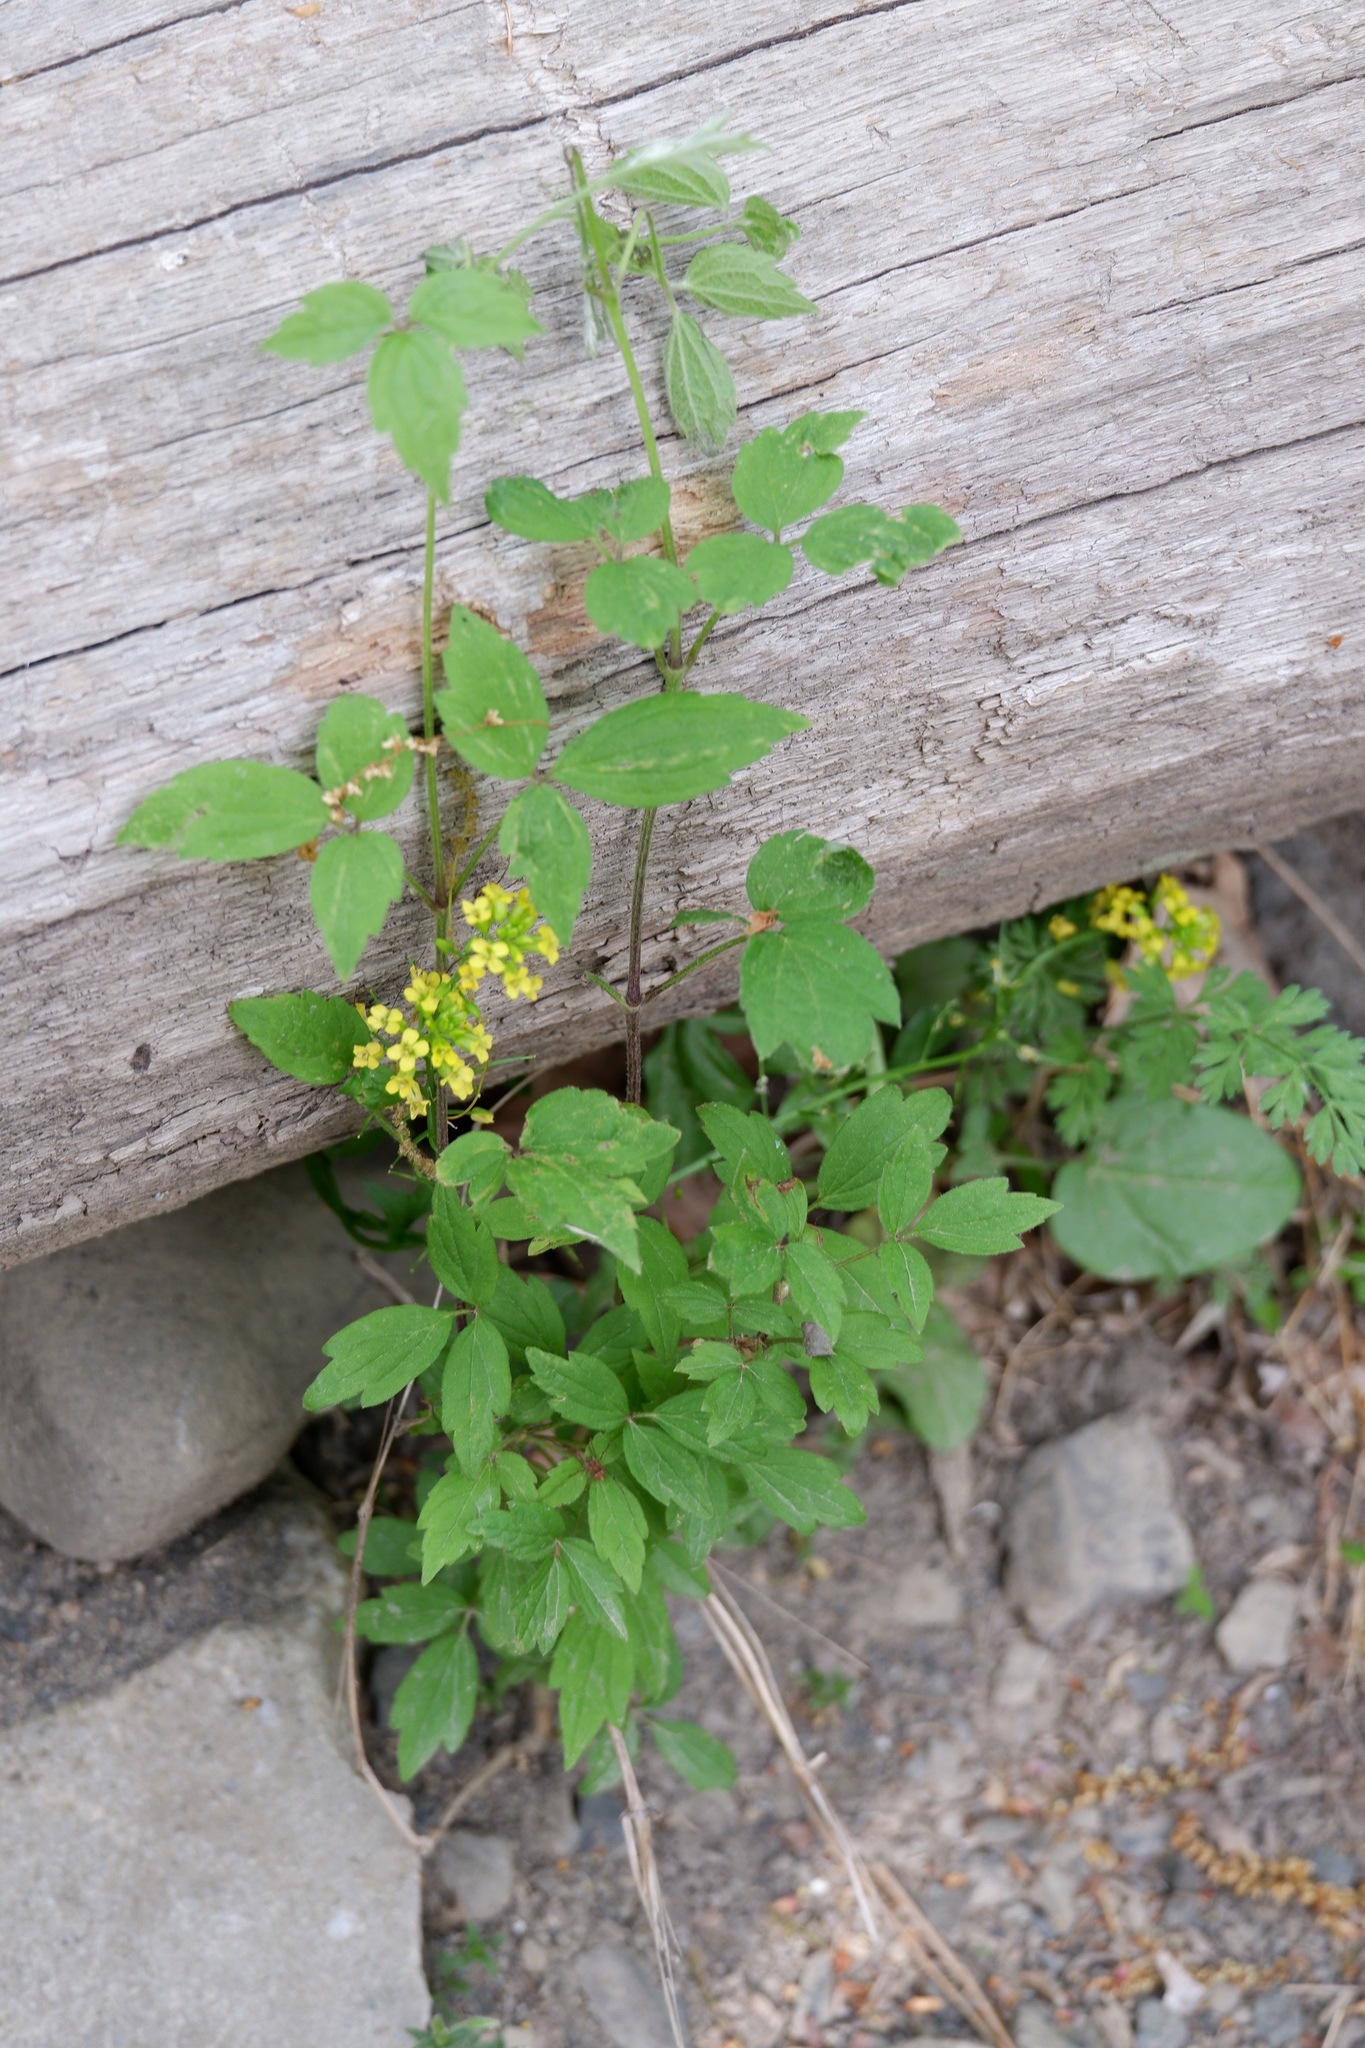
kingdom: Plantae
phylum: Tracheophyta
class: Magnoliopsida
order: Ranunculales
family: Ranunculaceae
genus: Clematis
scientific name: Clematis virginiana
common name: Virgin's-bower
